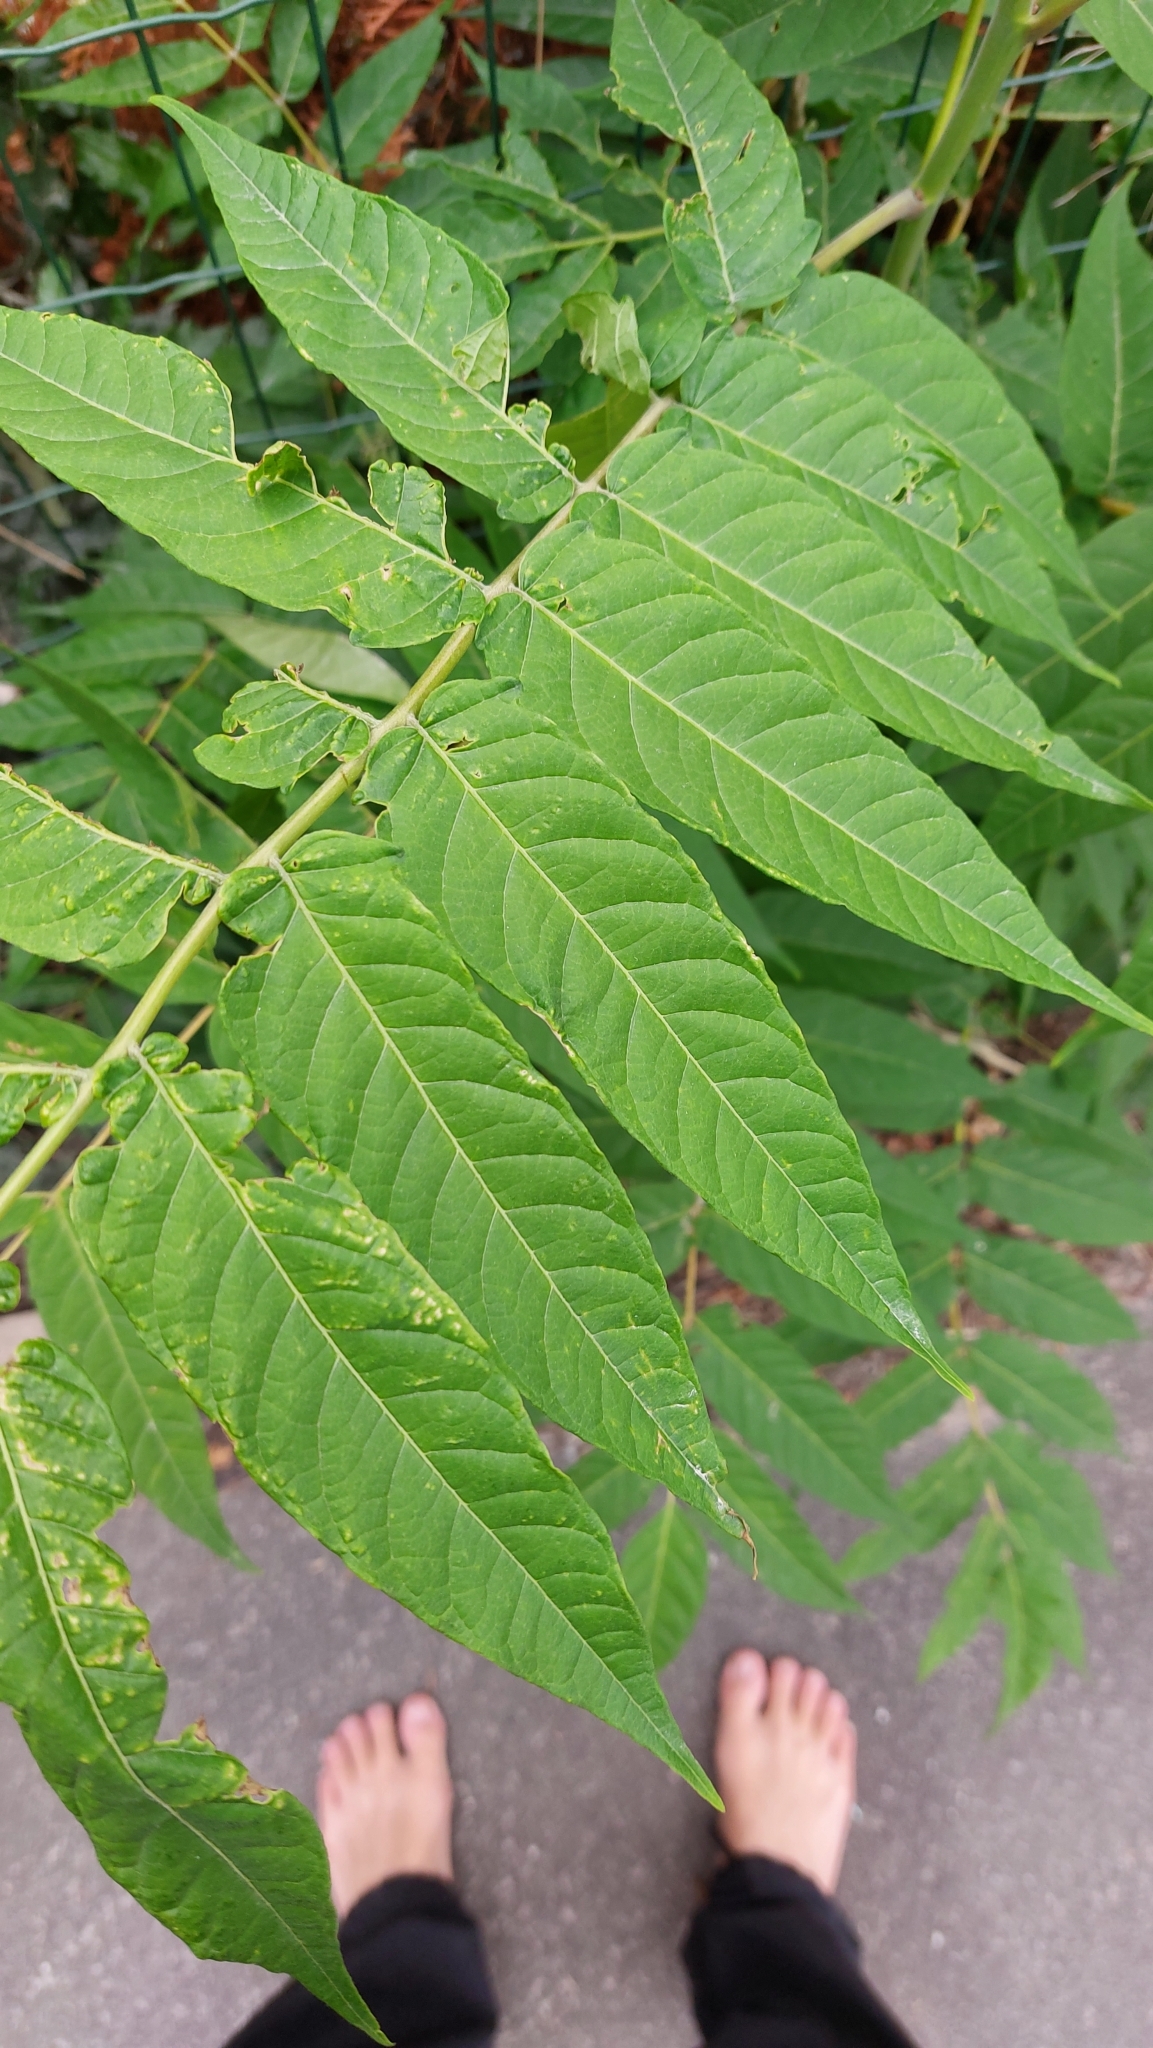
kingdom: Plantae
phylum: Tracheophyta
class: Magnoliopsida
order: Sapindales
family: Simaroubaceae
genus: Ailanthus
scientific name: Ailanthus altissima
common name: Tree-of-heaven
